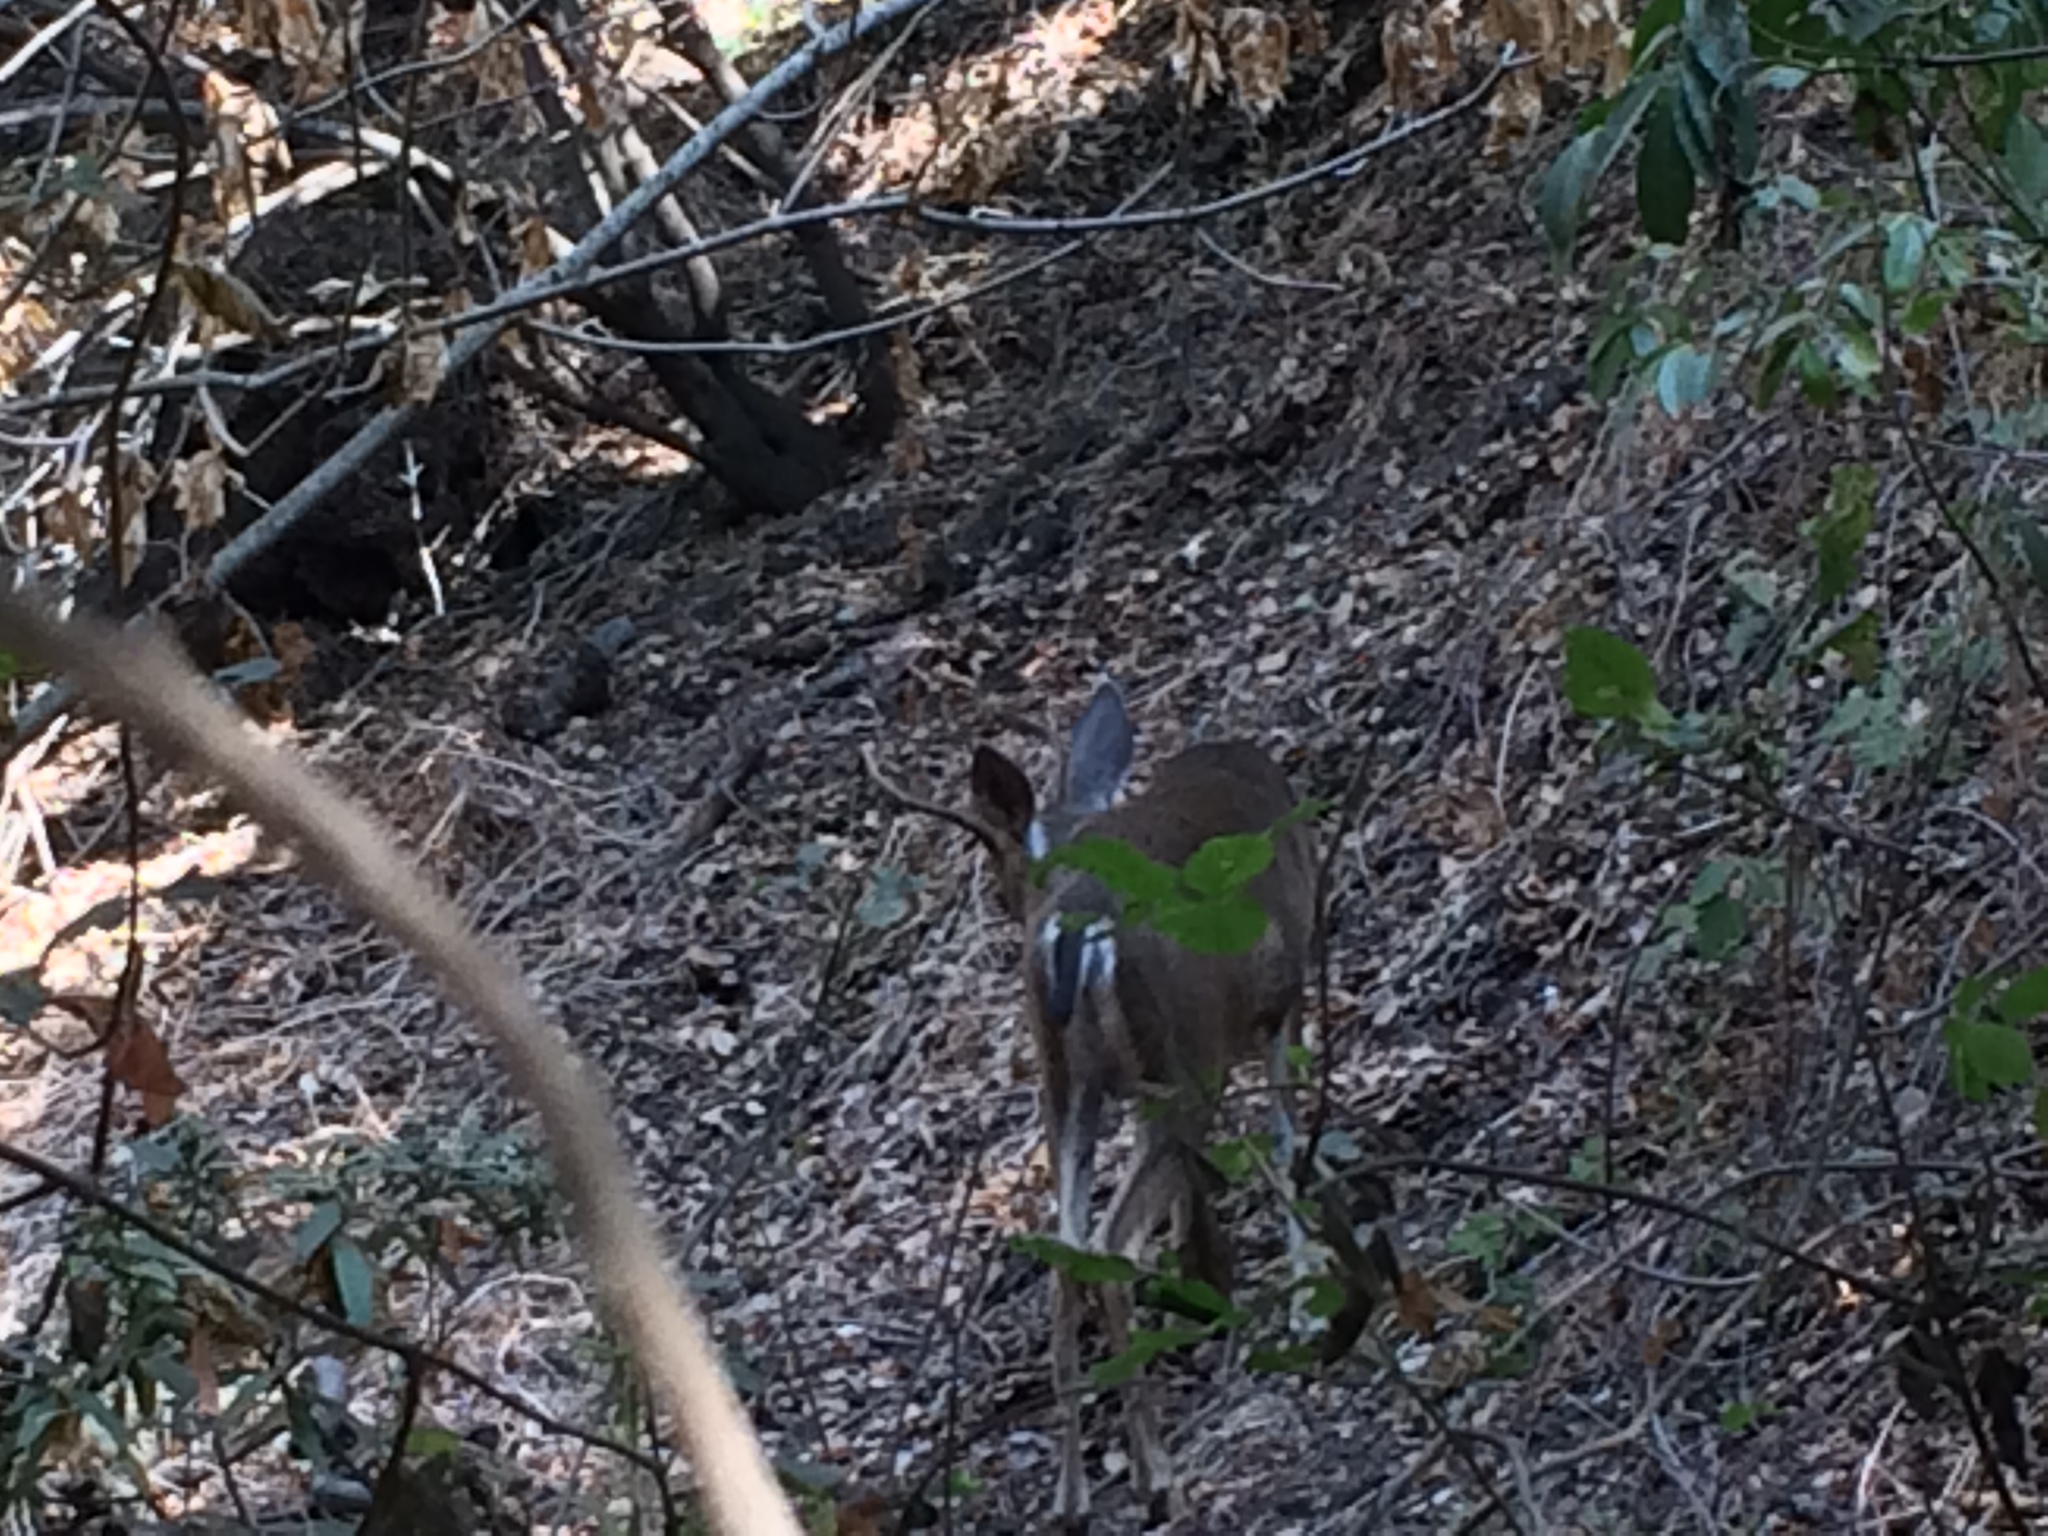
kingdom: Animalia
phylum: Chordata
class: Mammalia
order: Artiodactyla
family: Cervidae
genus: Odocoileus
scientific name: Odocoileus hemionus
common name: Mule deer
